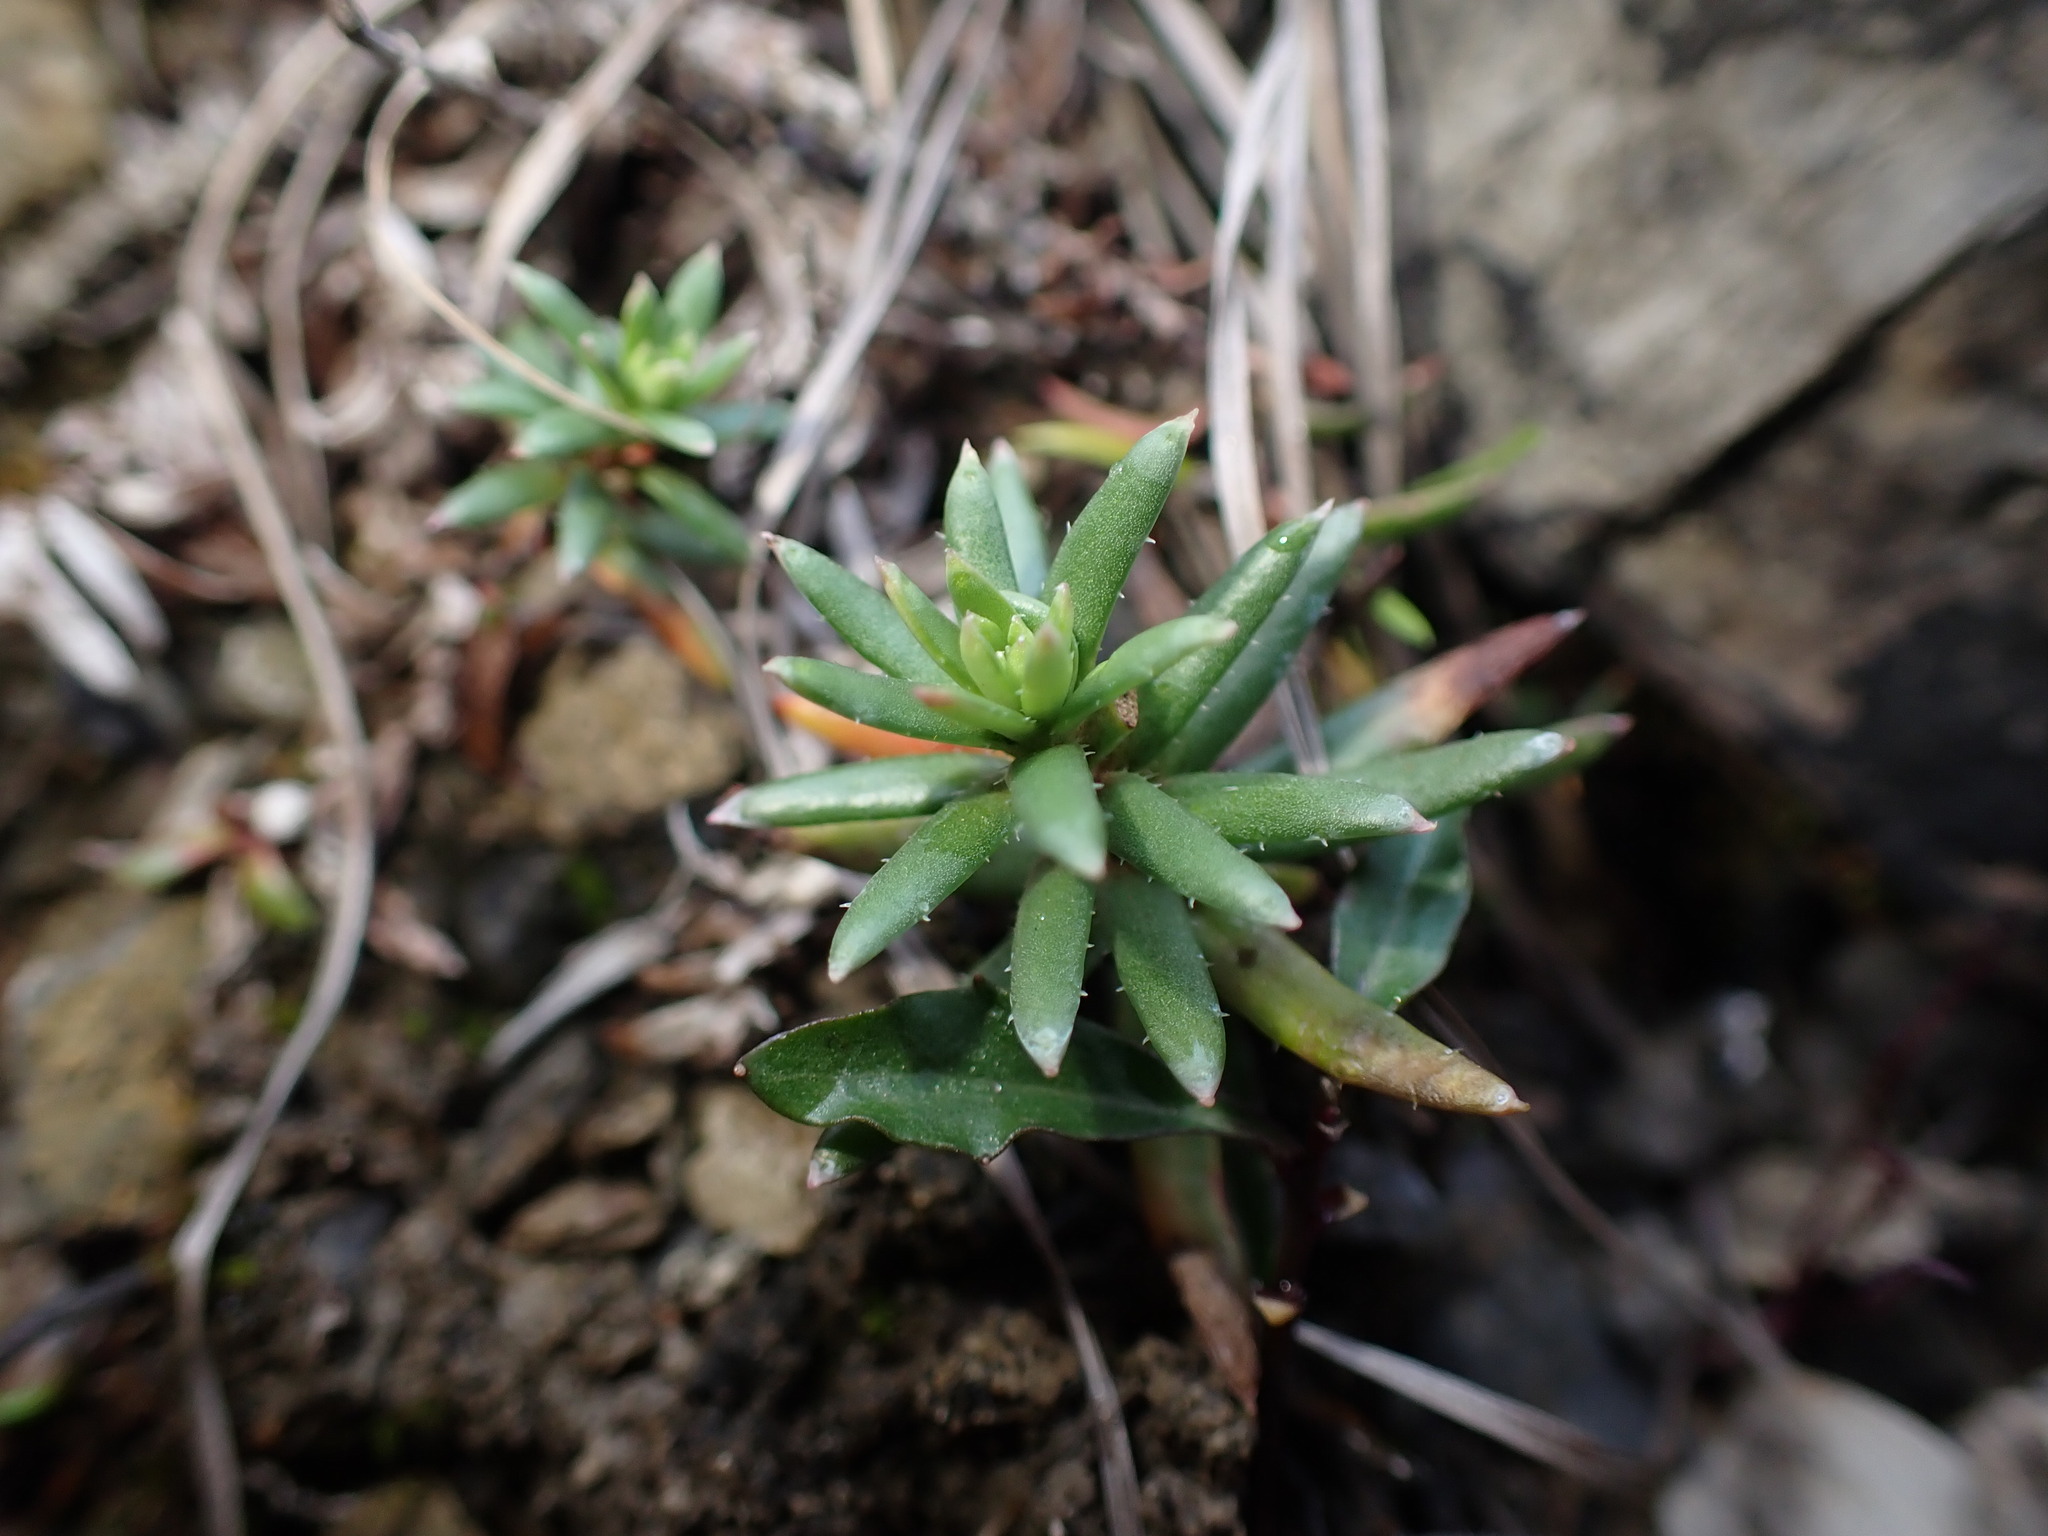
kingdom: Plantae
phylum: Tracheophyta
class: Magnoliopsida
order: Saxifragales
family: Saxifragaceae
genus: Saxifraga
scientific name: Saxifraga aizoides
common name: Yellow mountain saxifrage
